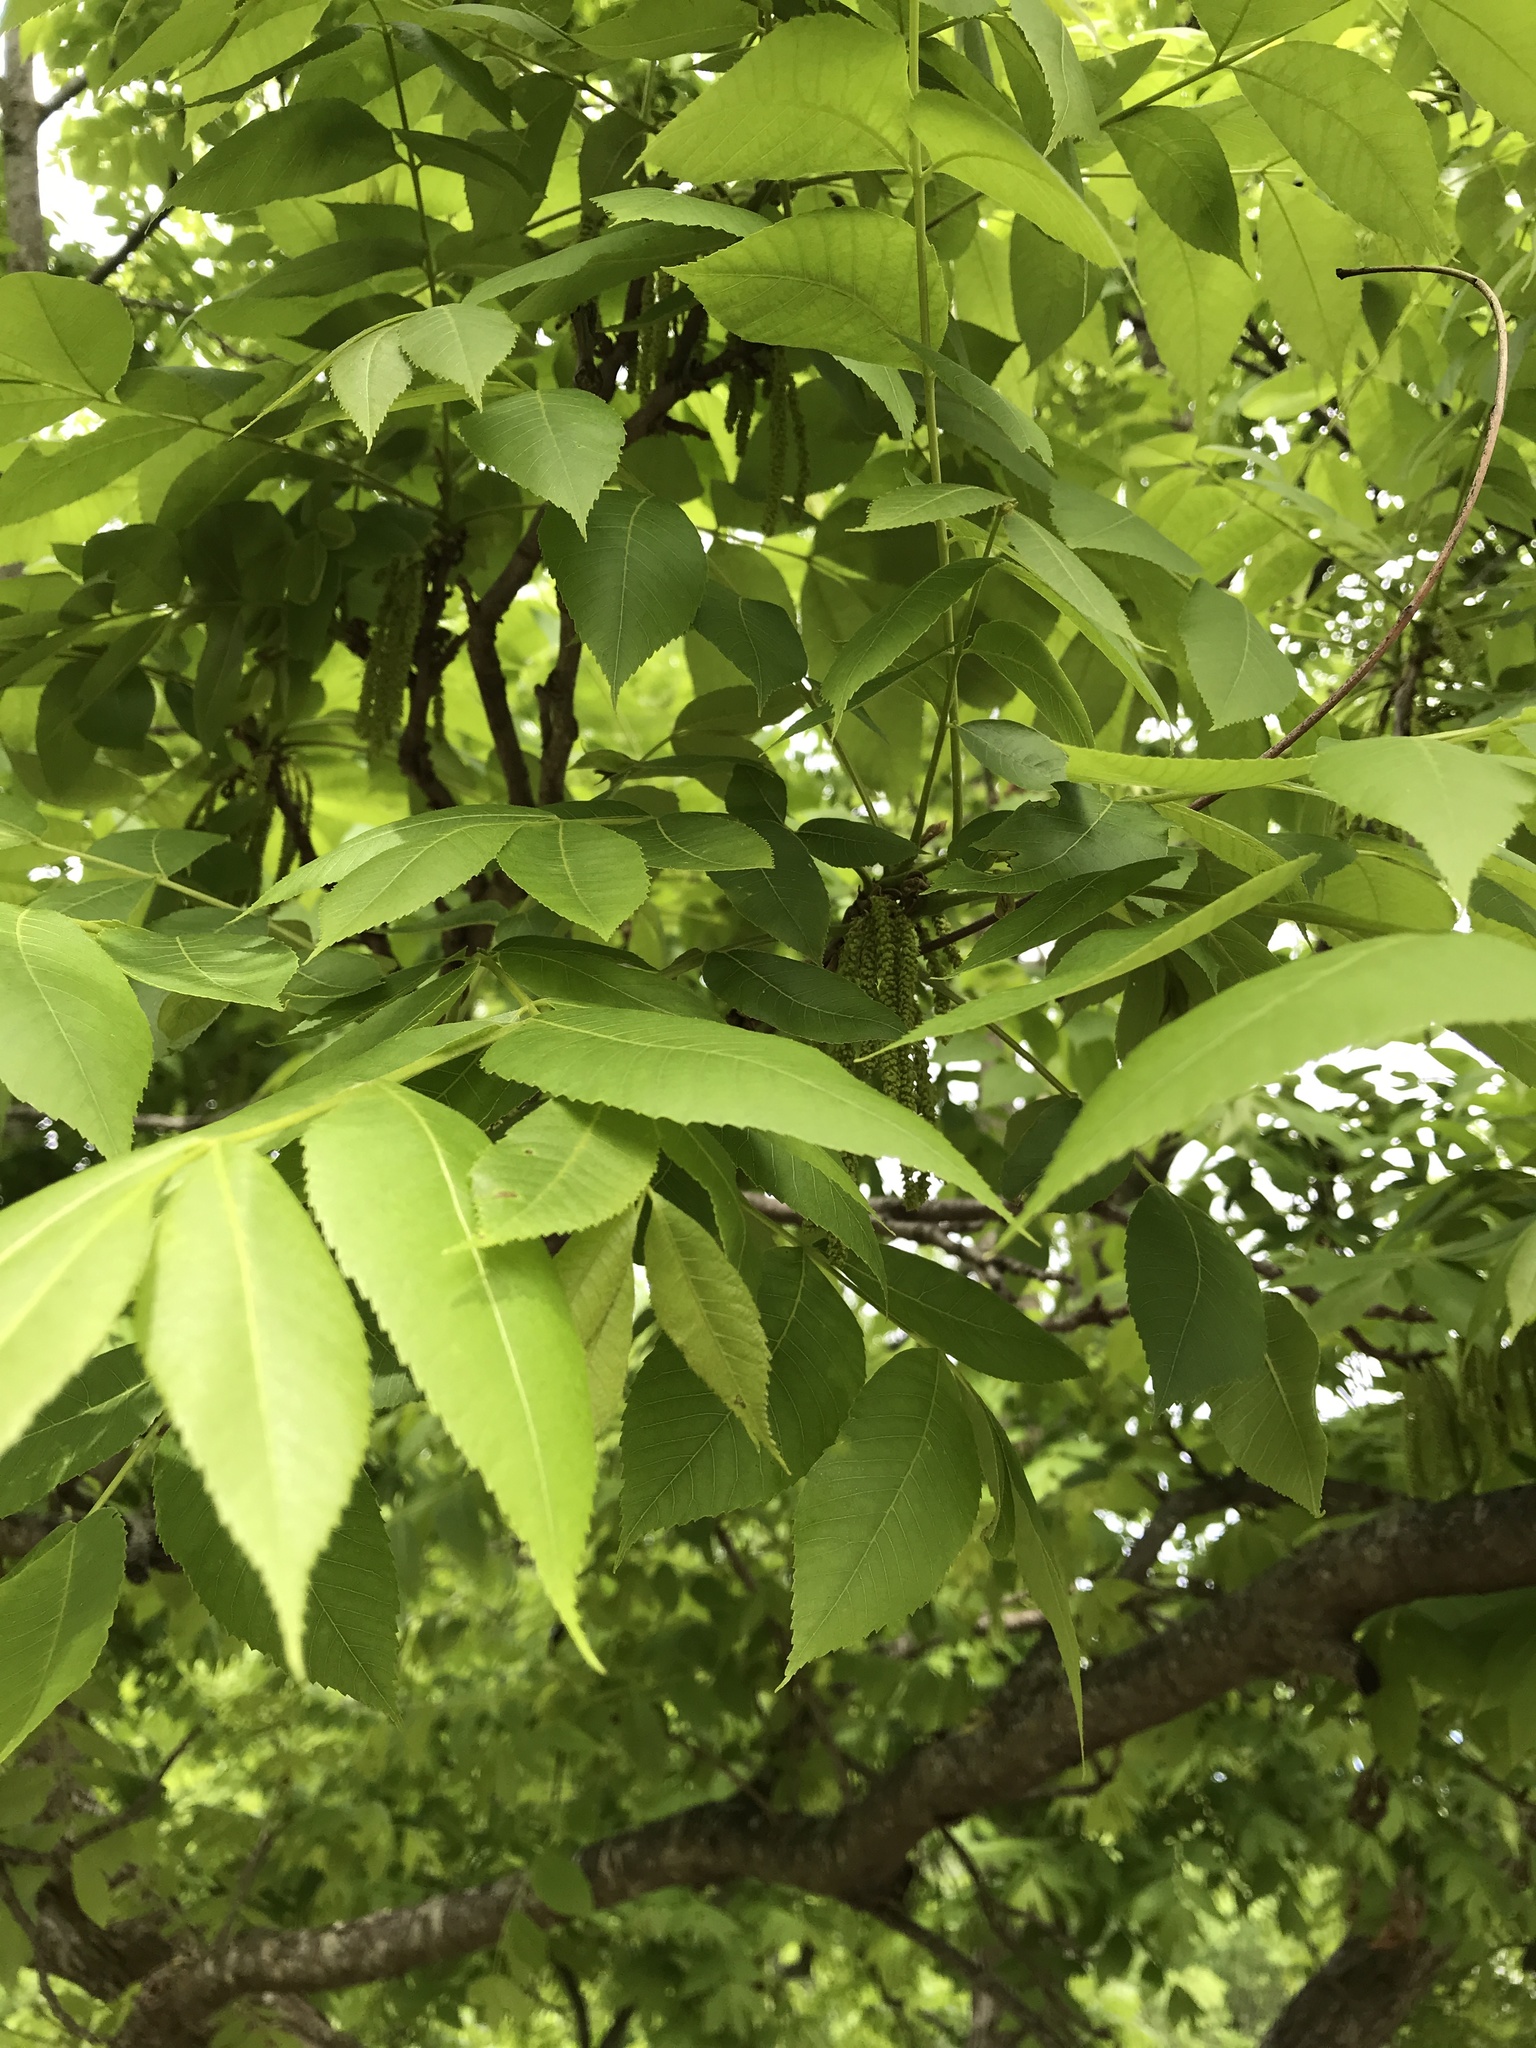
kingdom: Plantae
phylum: Tracheophyta
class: Magnoliopsida
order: Fagales
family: Juglandaceae
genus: Carya
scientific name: Carya illinoinensis
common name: Pecan
